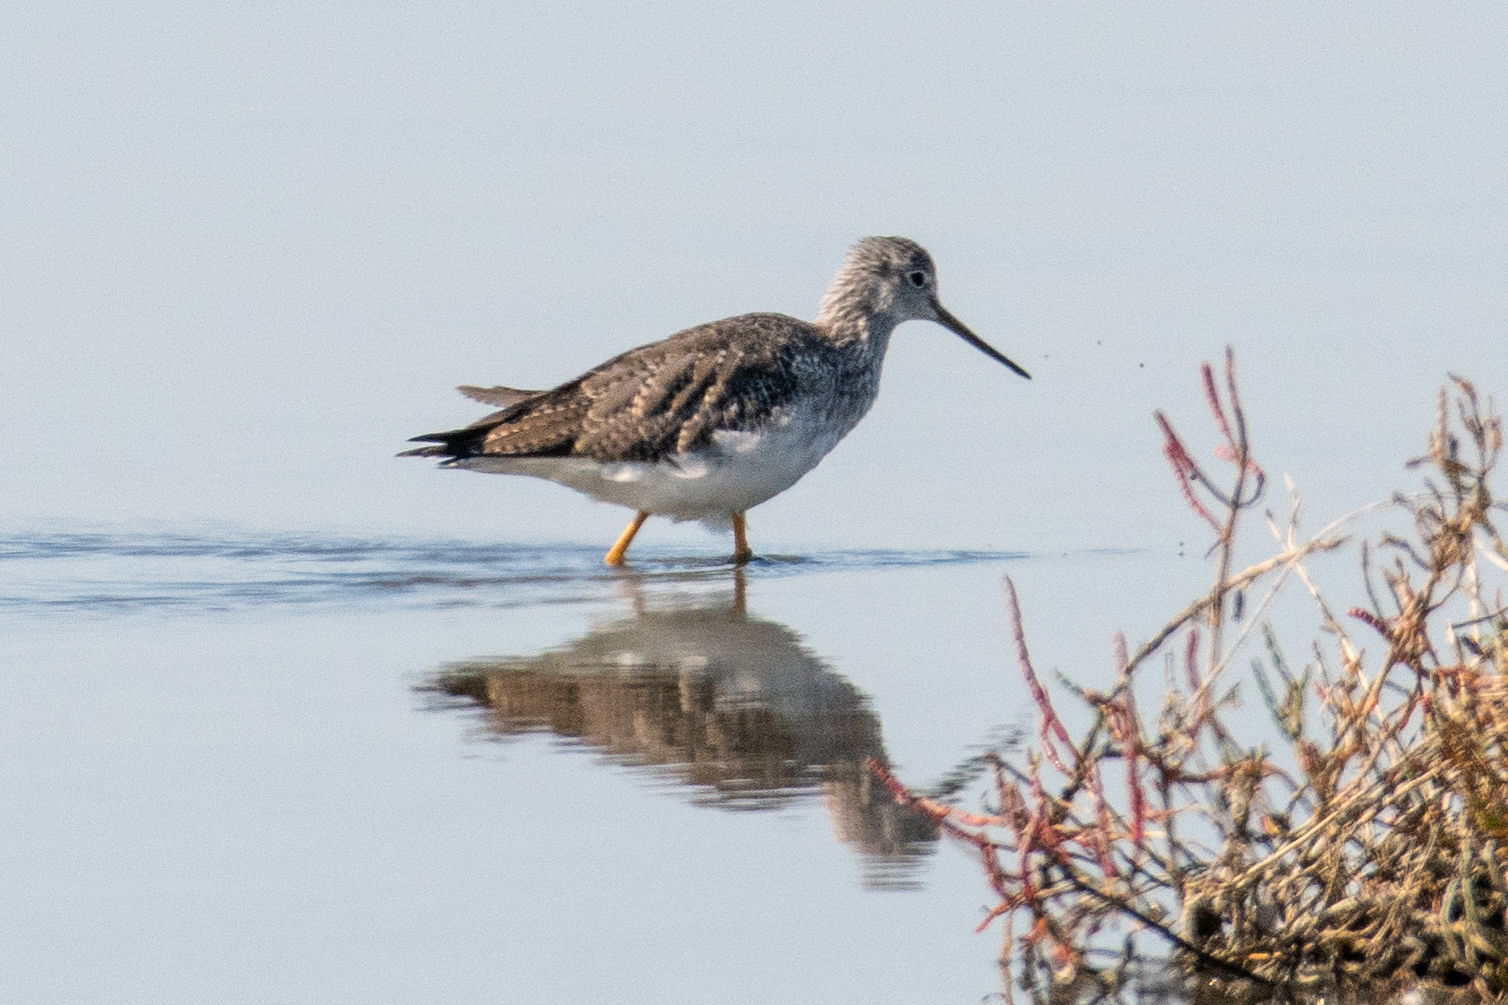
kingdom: Animalia
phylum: Chordata
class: Aves
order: Charadriiformes
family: Scolopacidae
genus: Tringa
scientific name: Tringa melanoleuca
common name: Greater yellowlegs
